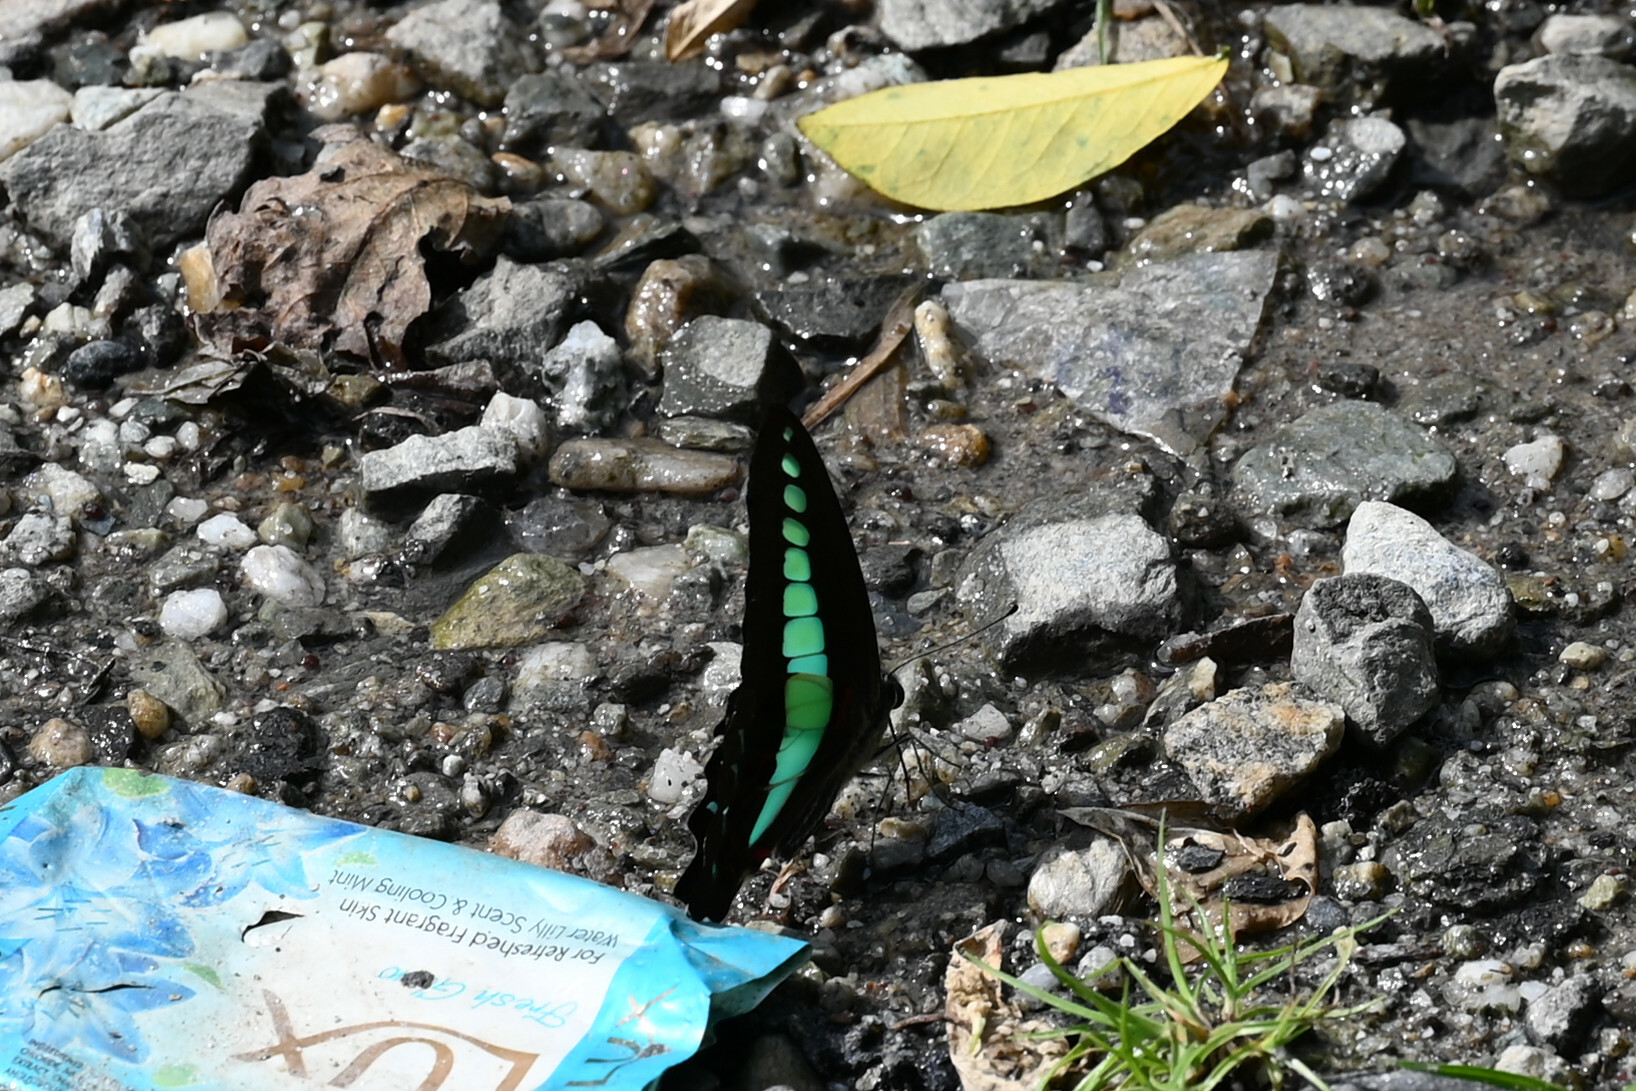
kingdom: Fungi
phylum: Ascomycota
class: Sordariomycetes
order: Microascales
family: Microascaceae
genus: Graphium
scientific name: Graphium sarpedon
